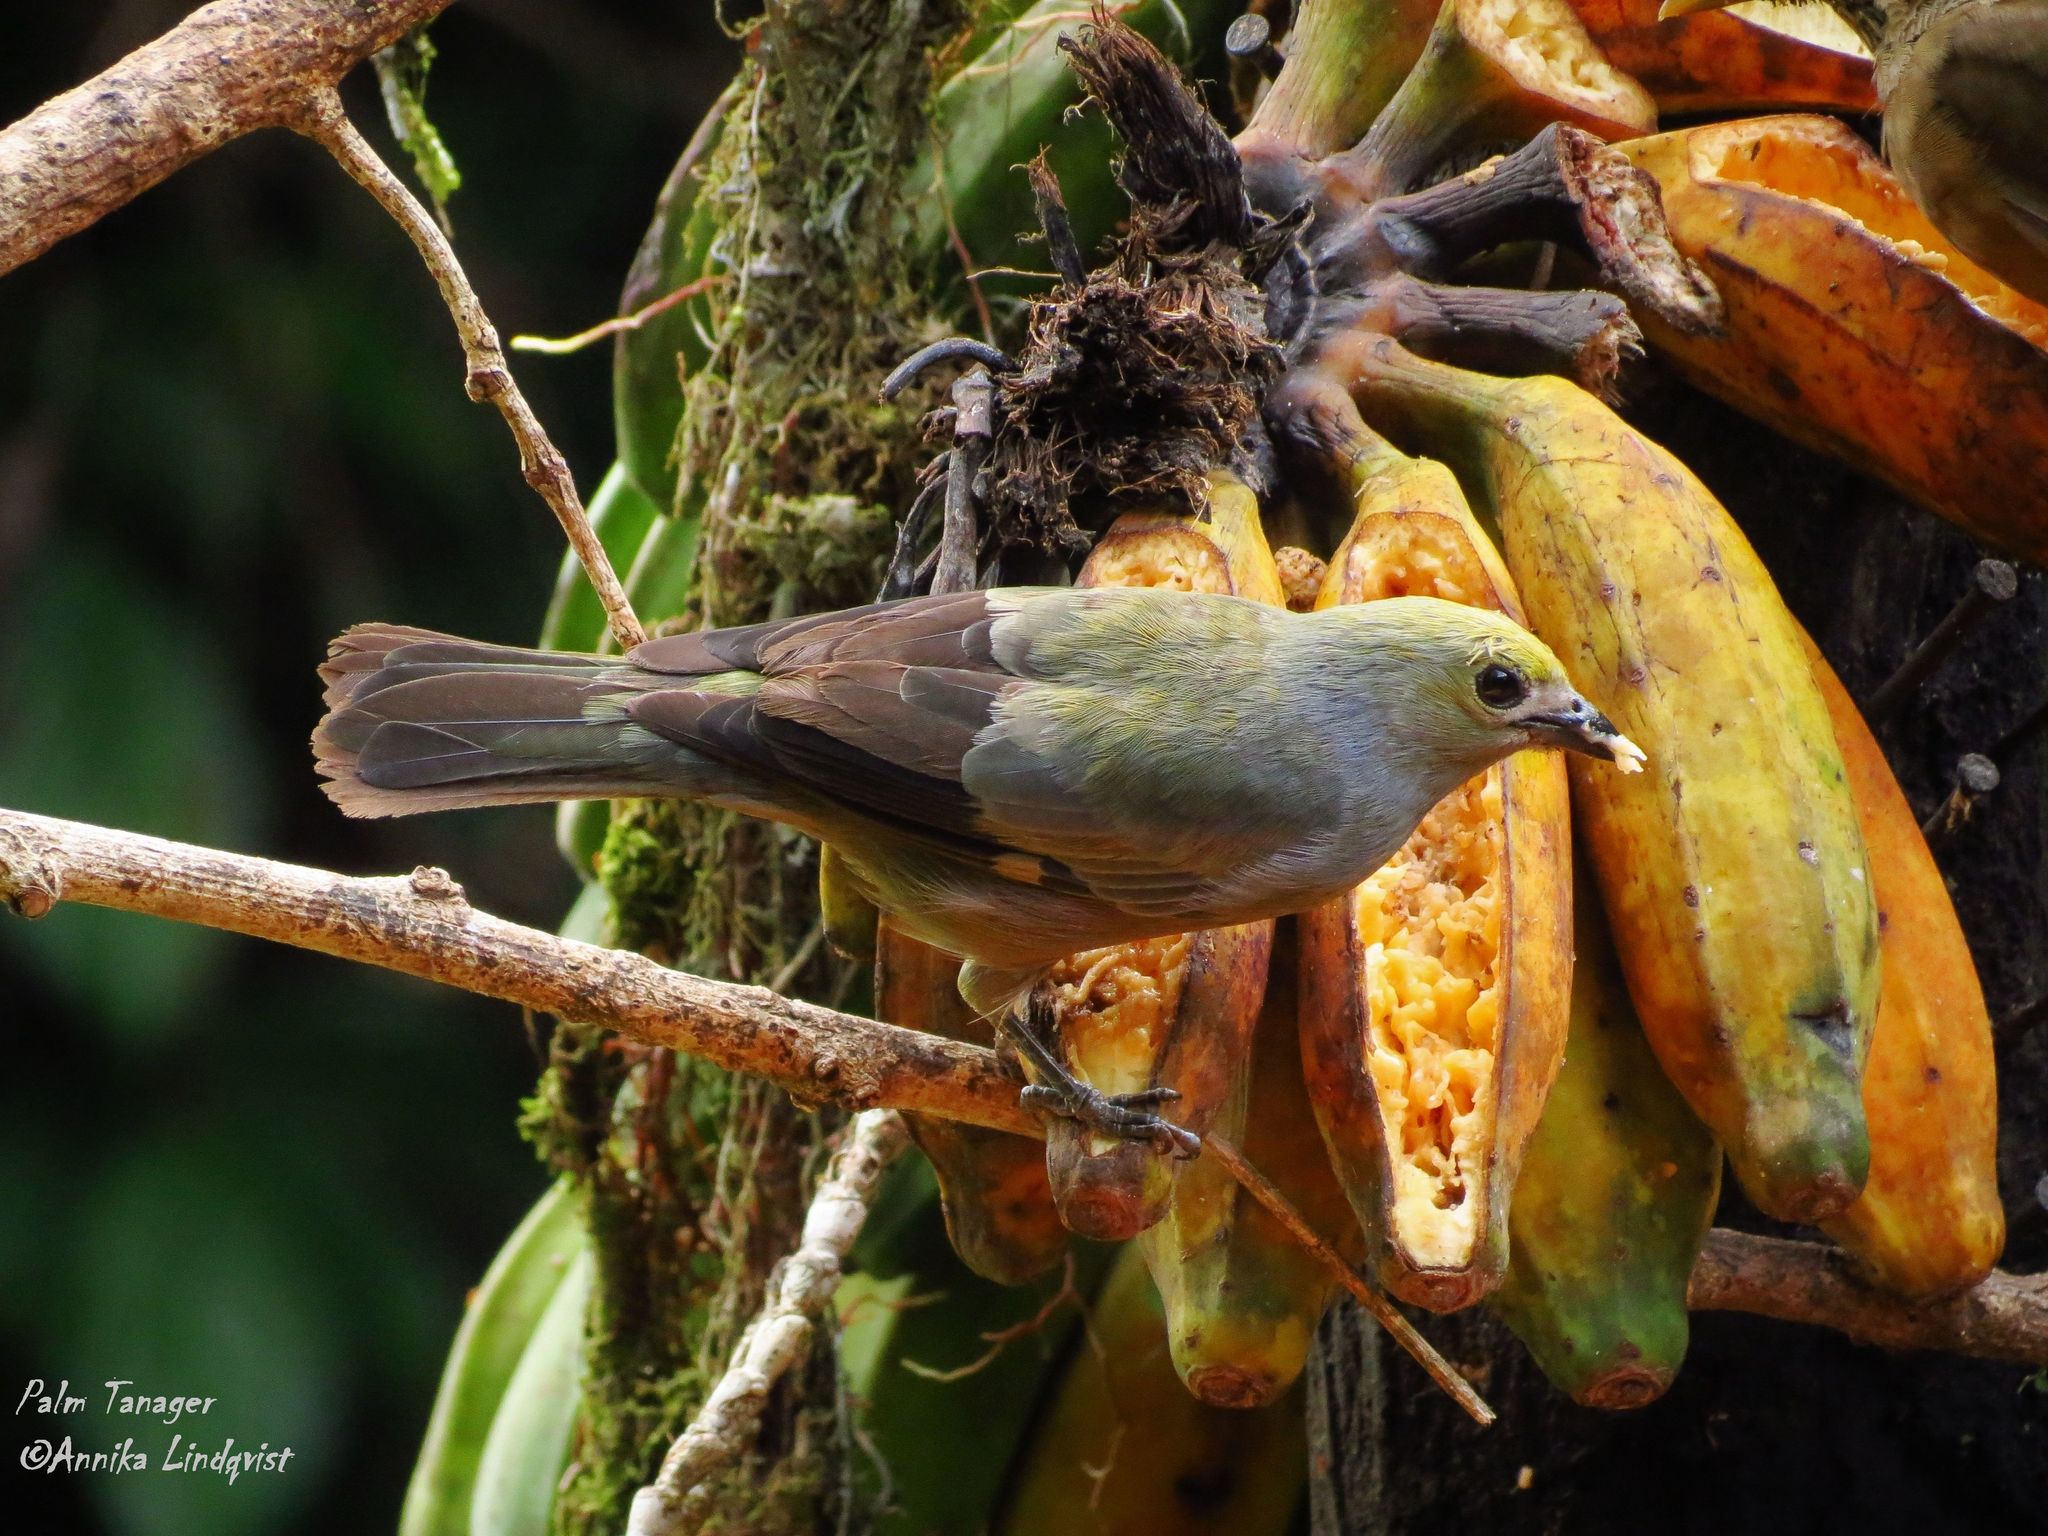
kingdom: Animalia
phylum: Chordata
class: Aves
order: Passeriformes
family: Thraupidae
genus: Thraupis
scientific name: Thraupis palmarum
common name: Palm tanager
